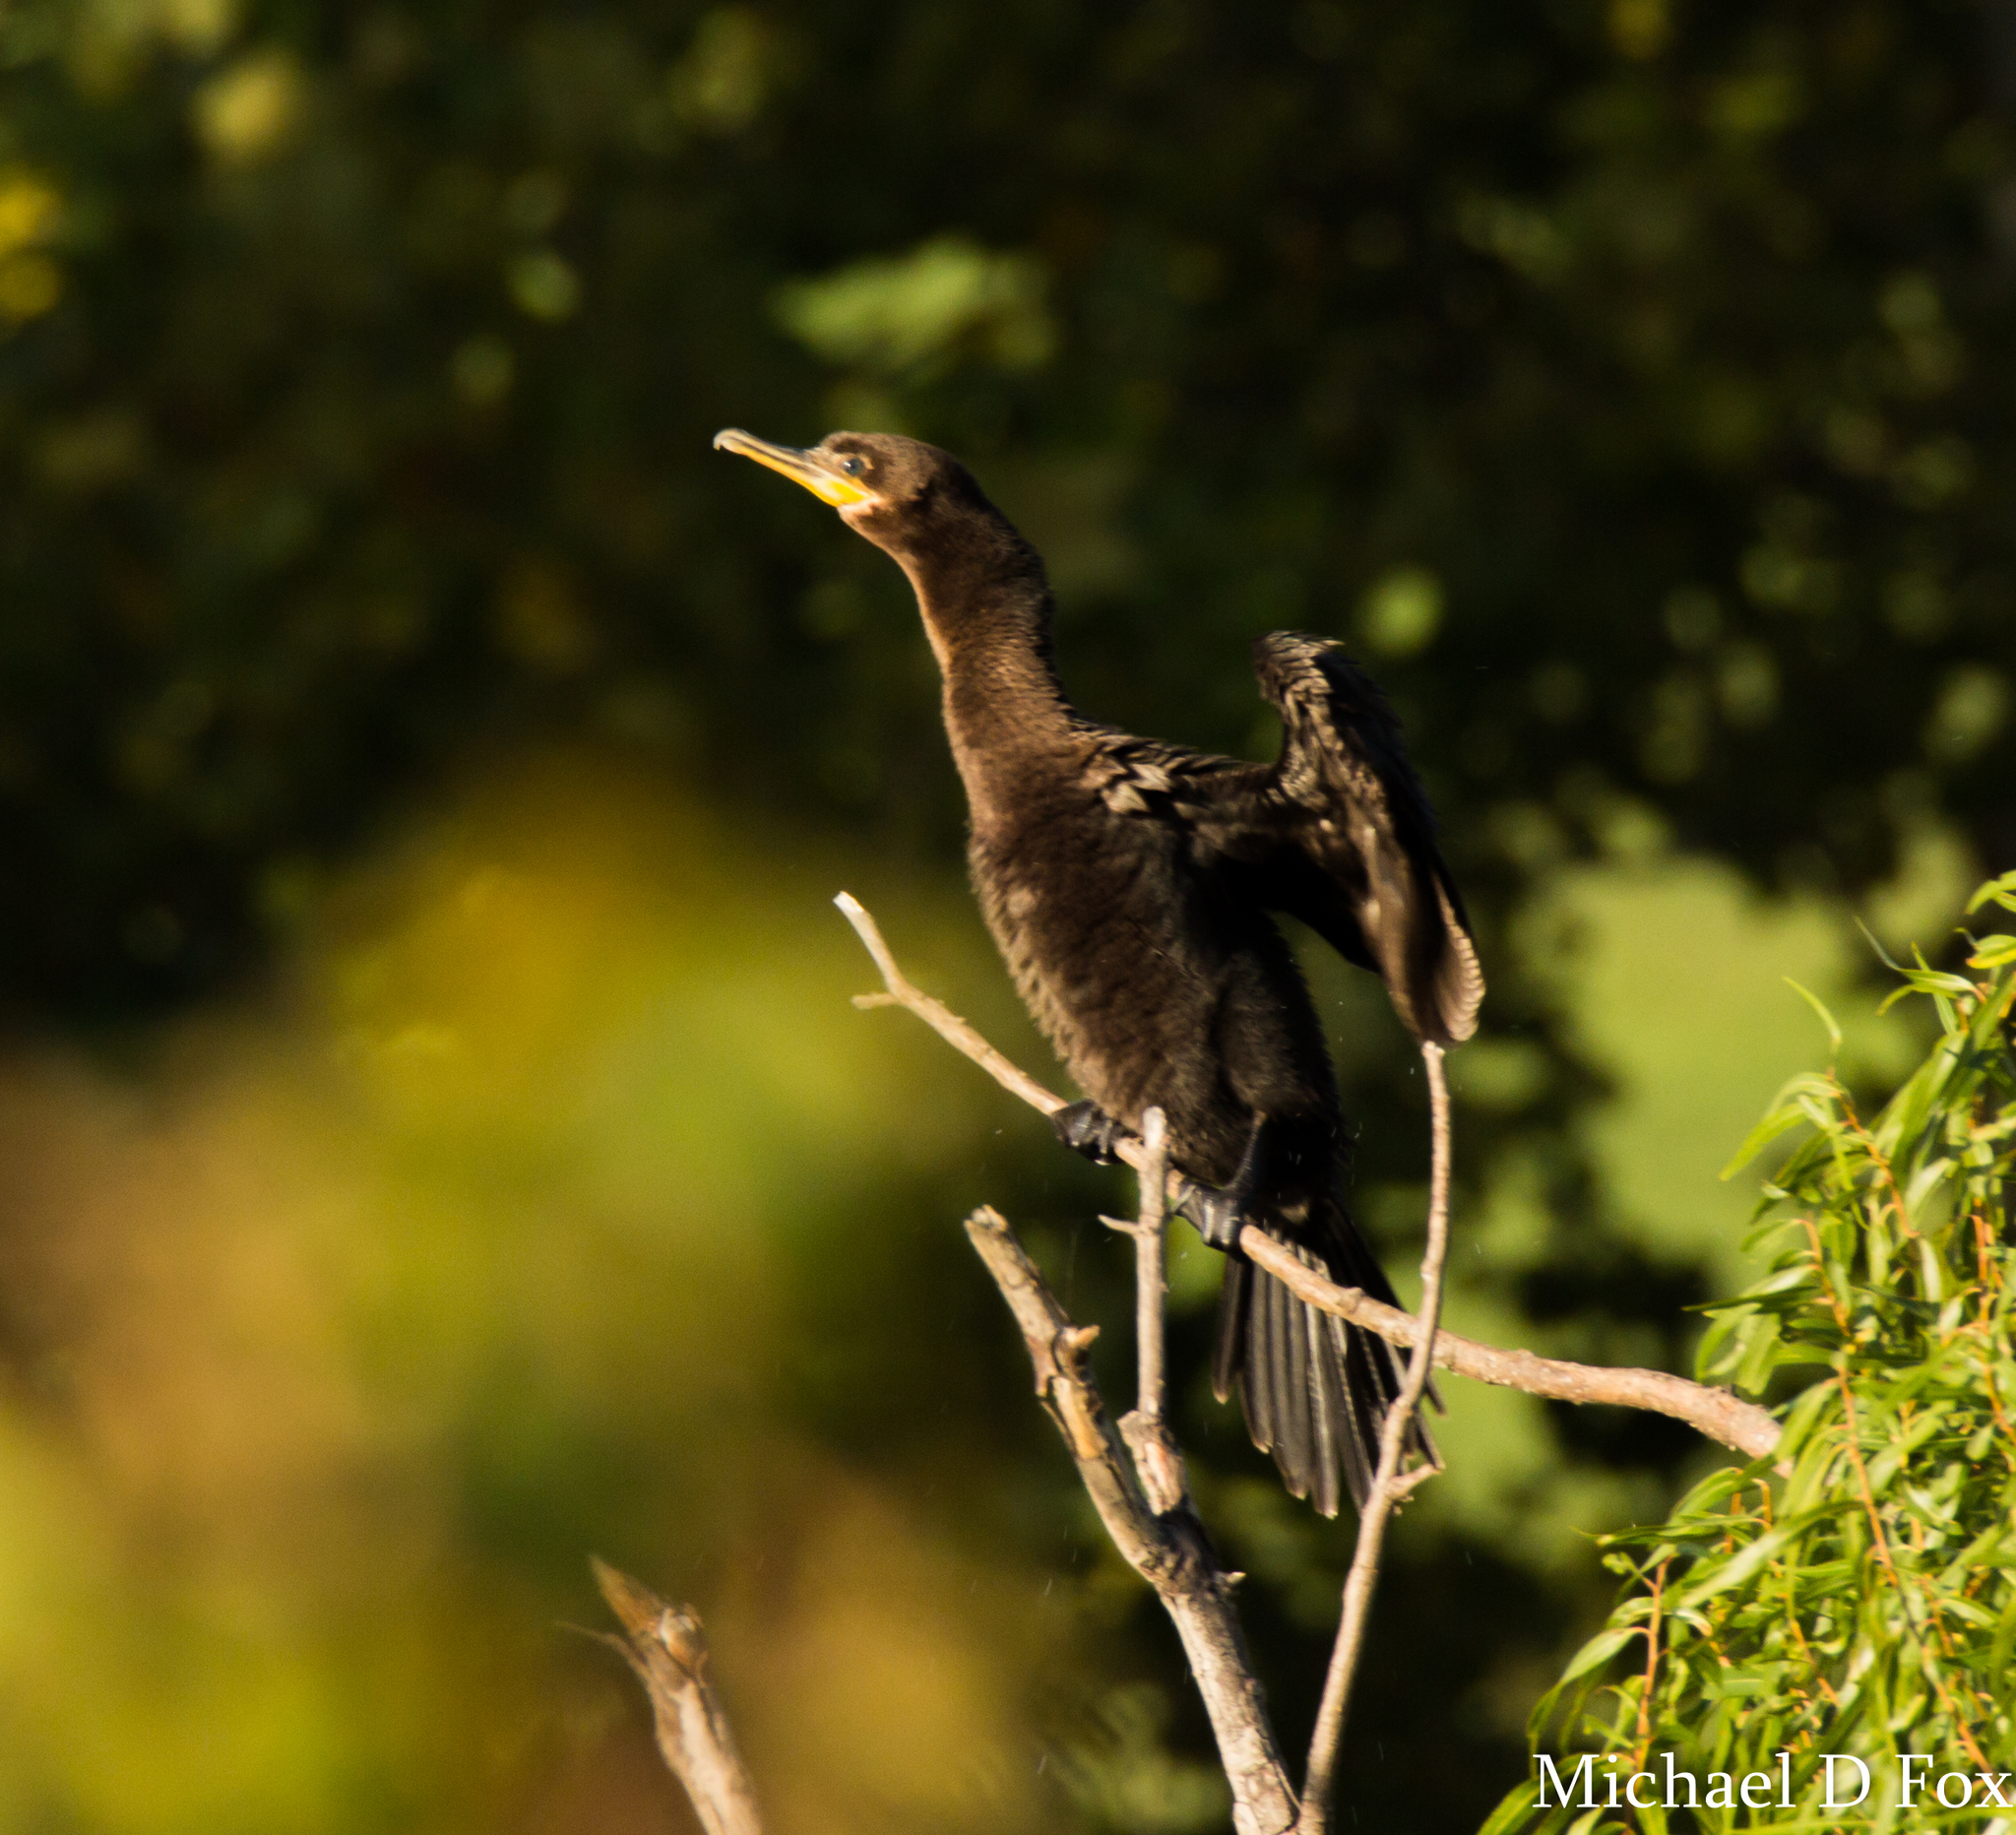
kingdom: Animalia
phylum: Chordata
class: Aves
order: Suliformes
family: Phalacrocoracidae
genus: Phalacrocorax
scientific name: Phalacrocorax brasilianus
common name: Neotropic cormorant
